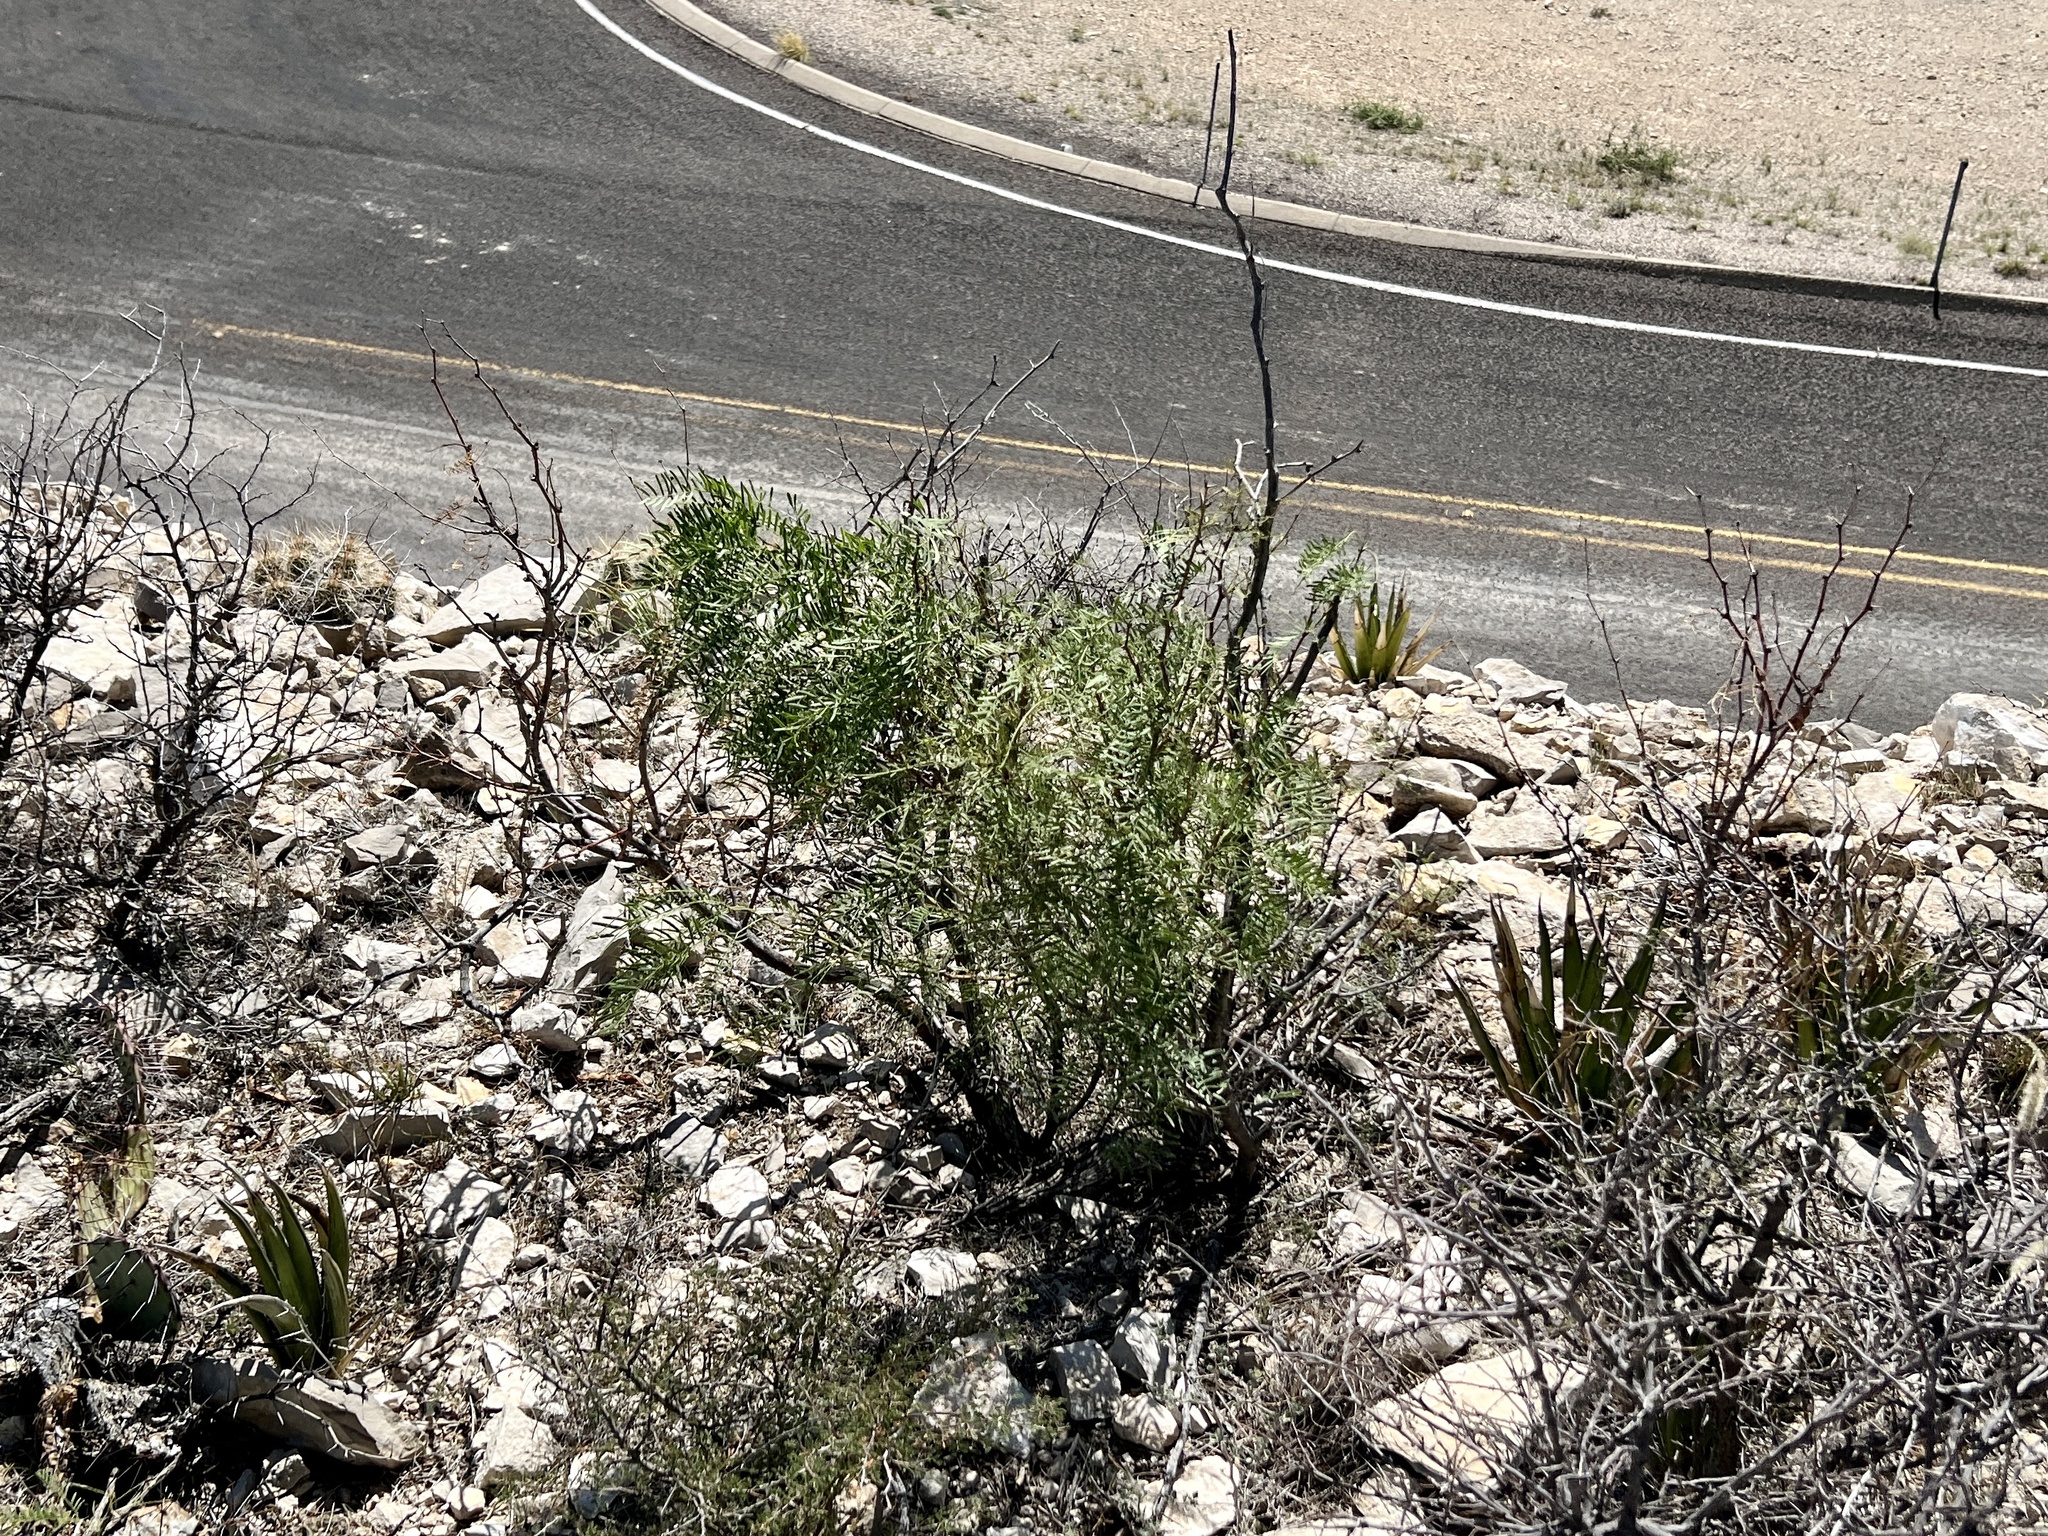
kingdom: Plantae
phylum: Tracheophyta
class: Magnoliopsida
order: Fabales
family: Fabaceae
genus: Prosopis
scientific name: Prosopis glandulosa
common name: Honey mesquite
